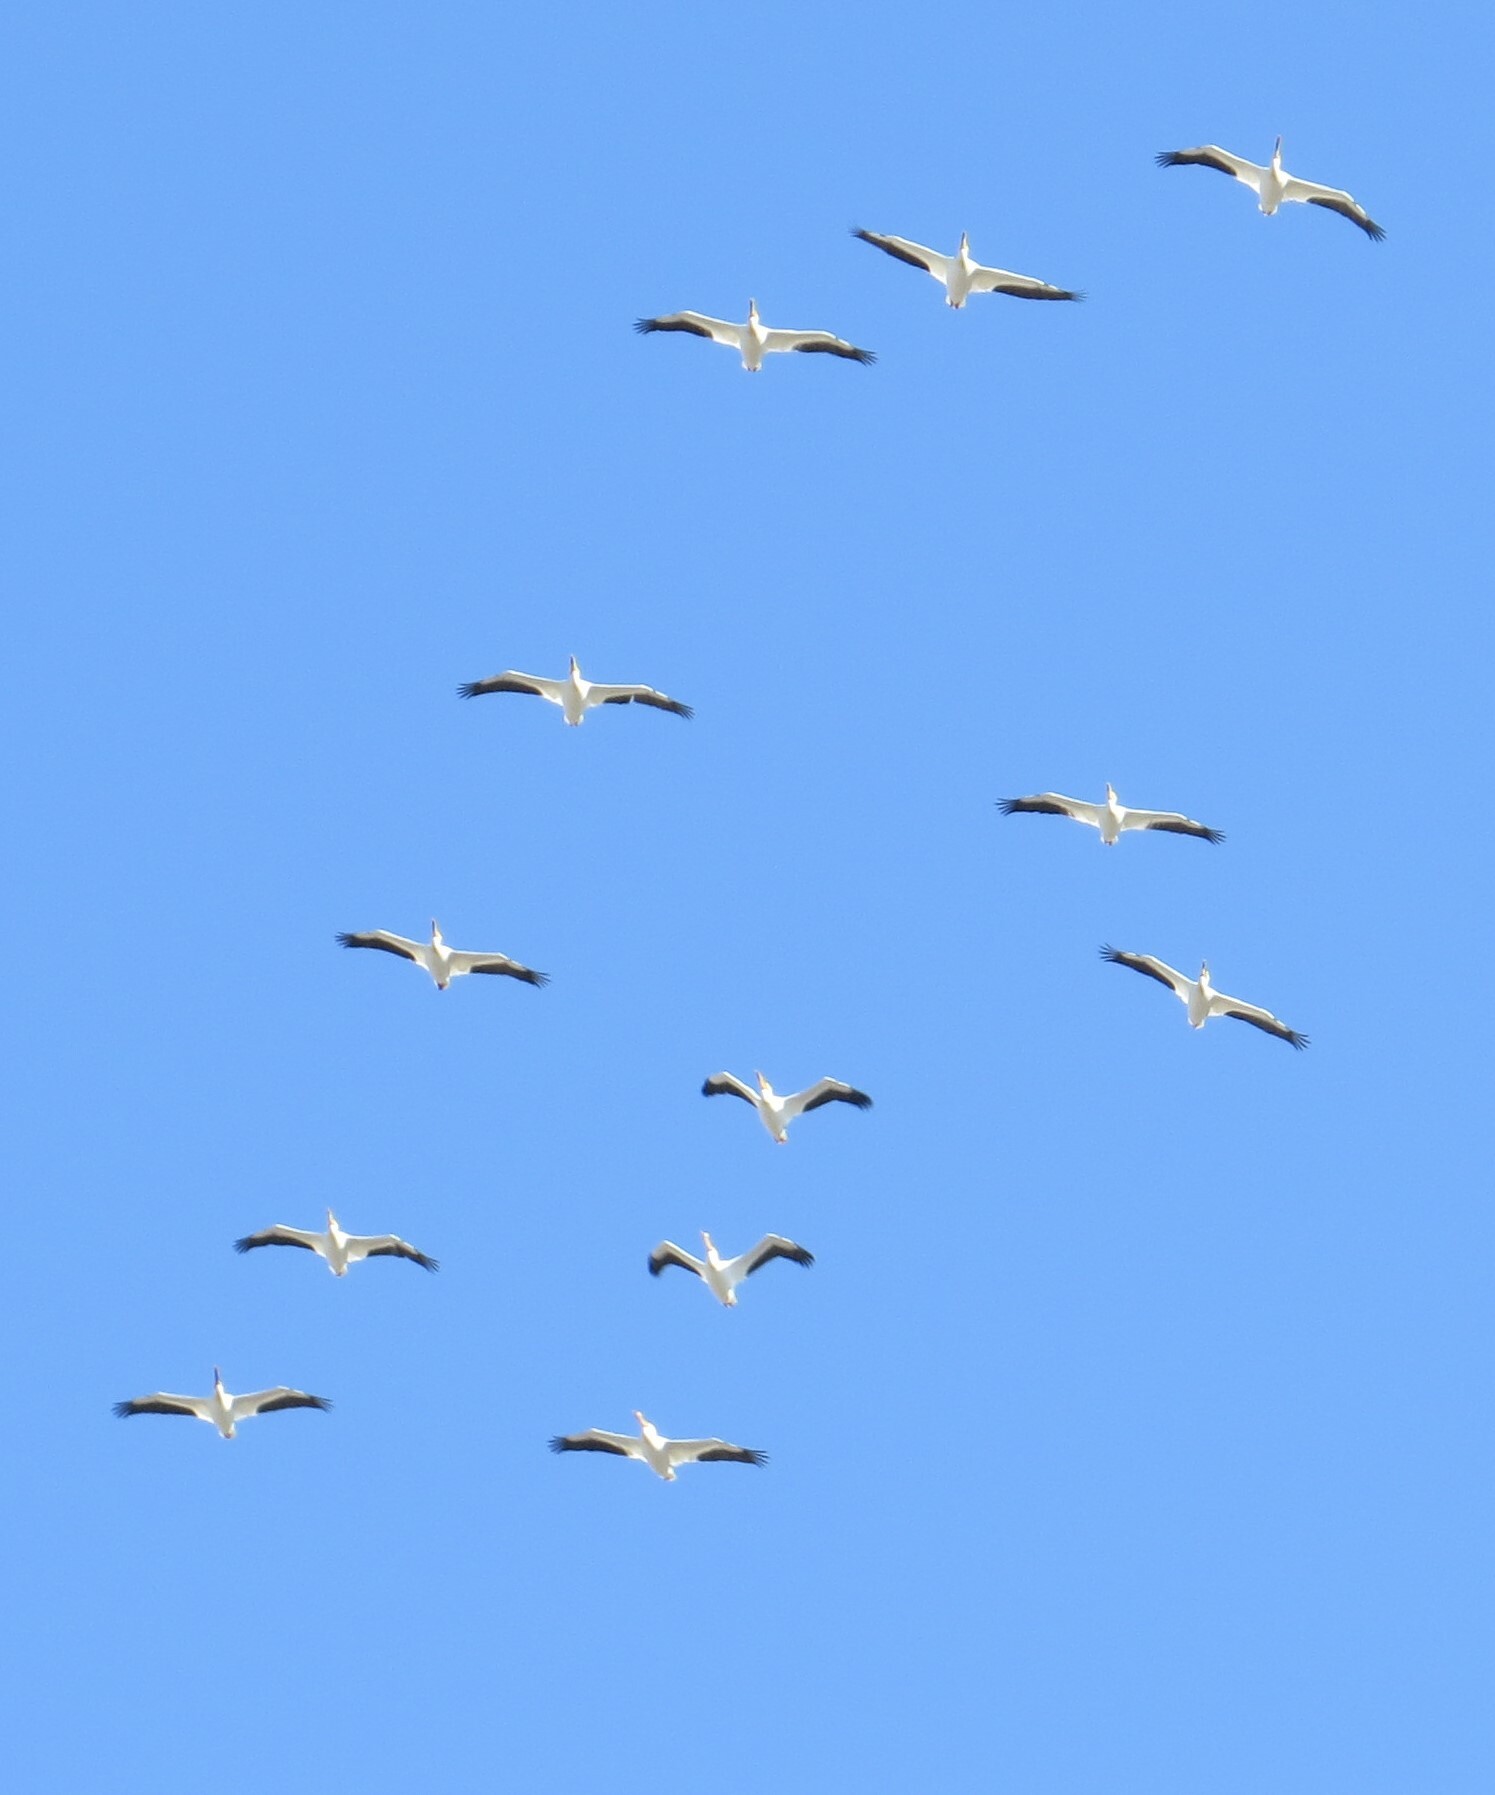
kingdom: Animalia
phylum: Chordata
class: Aves
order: Pelecaniformes
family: Pelecanidae
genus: Pelecanus
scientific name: Pelecanus erythrorhynchos
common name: American white pelican
